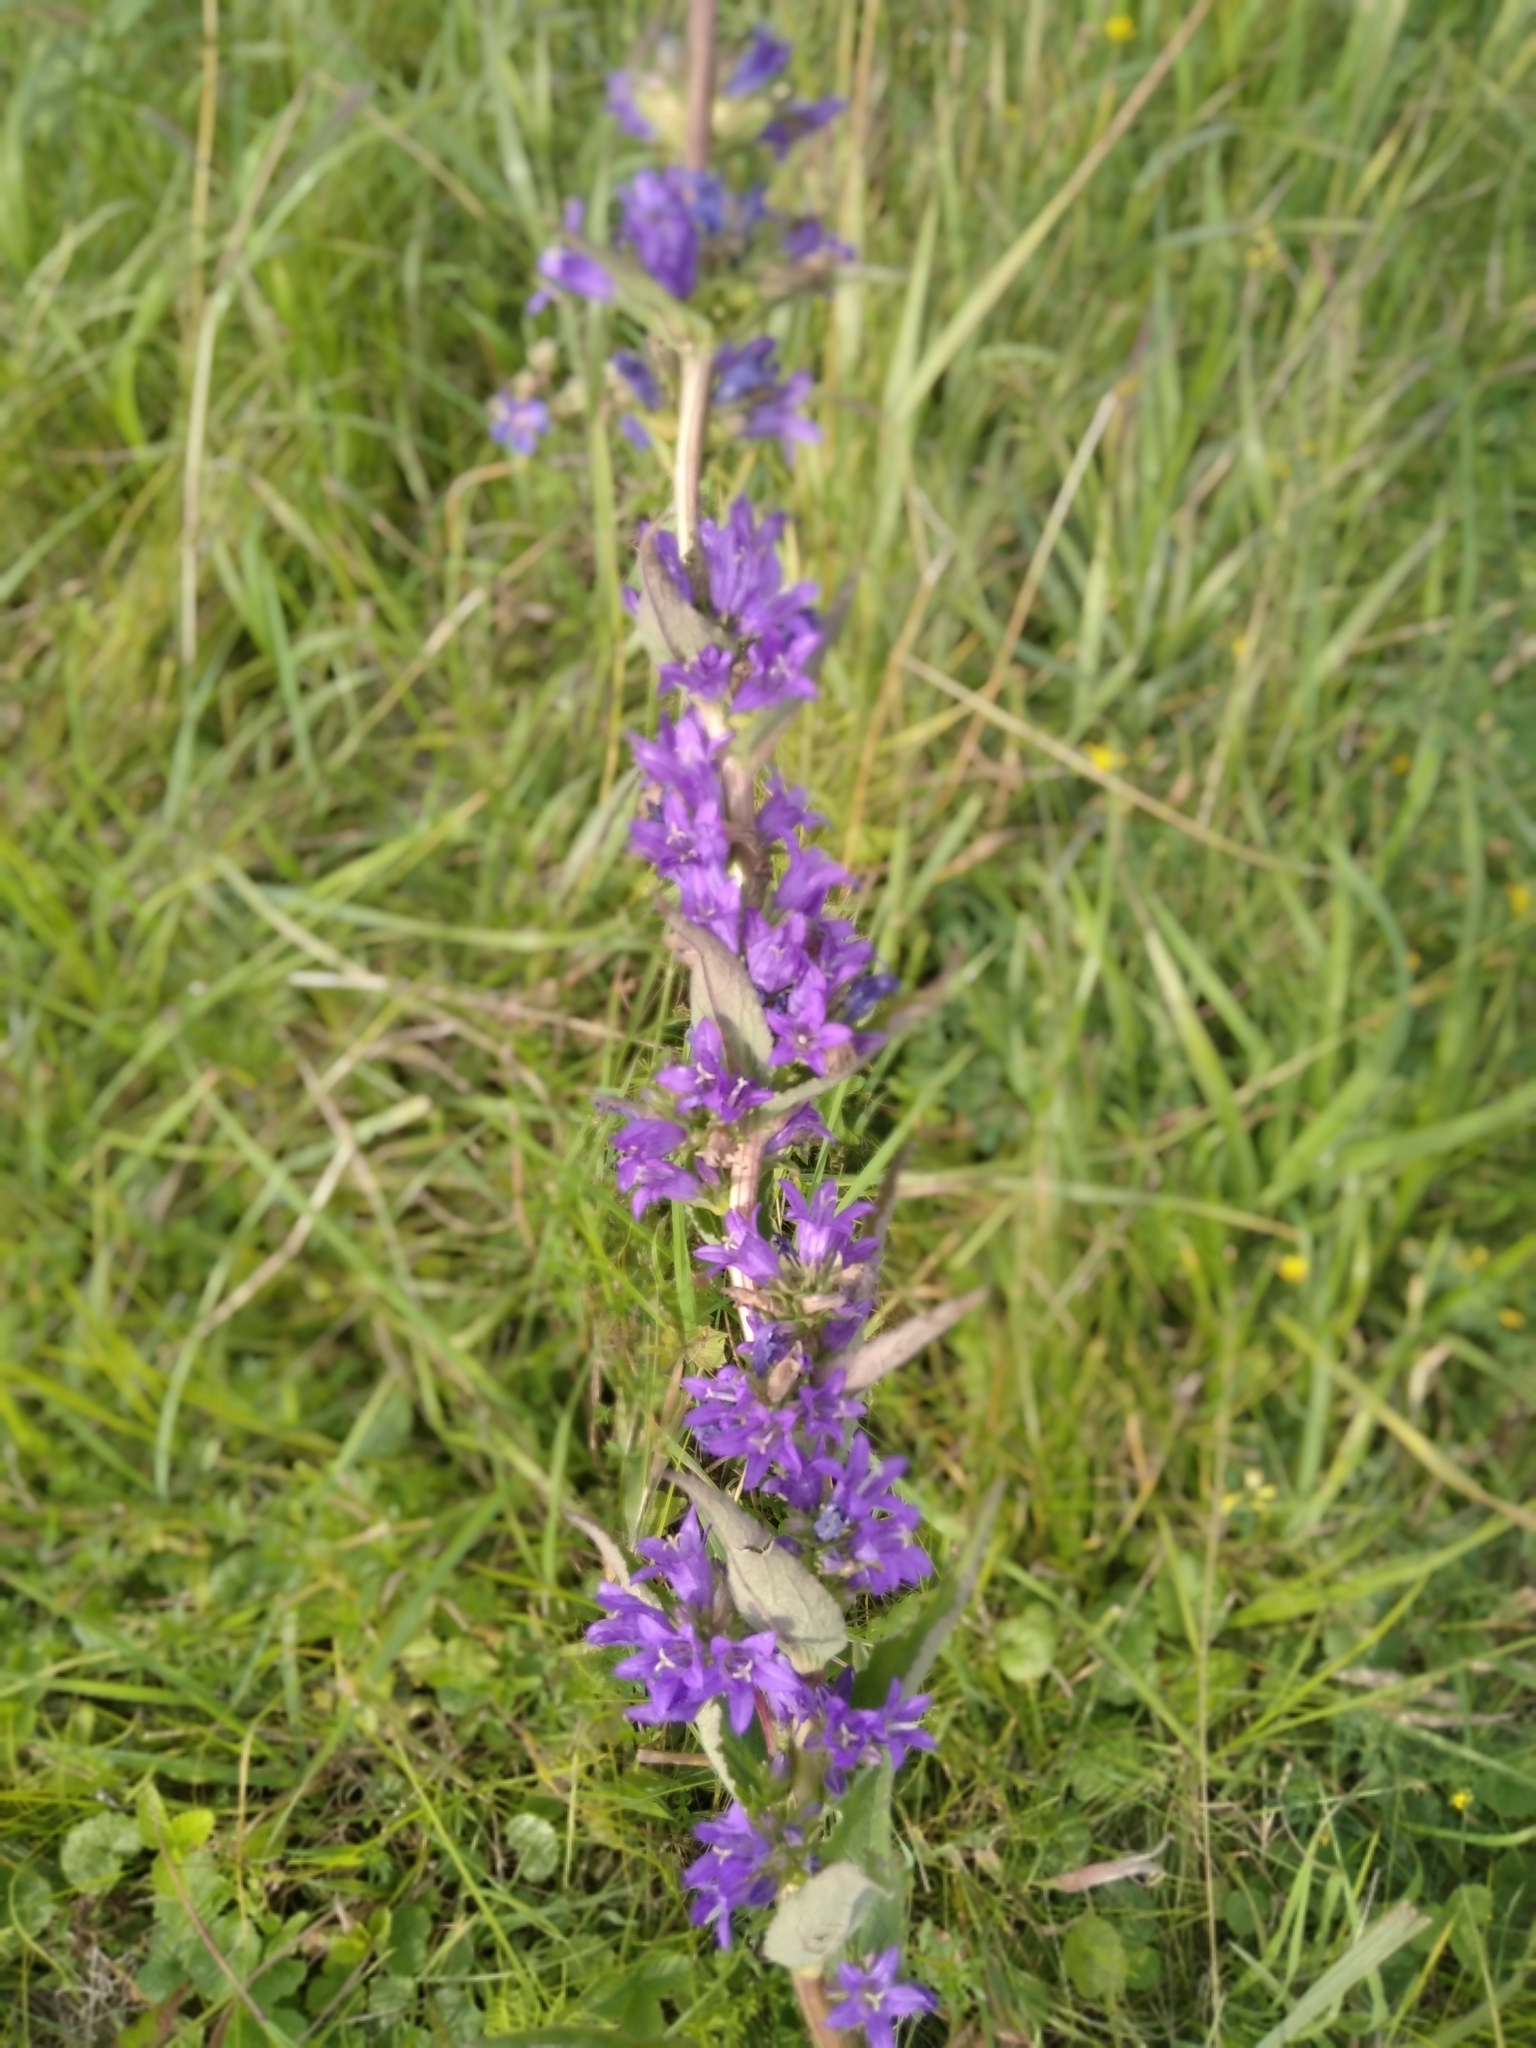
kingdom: Plantae
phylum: Tracheophyta
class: Magnoliopsida
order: Asterales
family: Campanulaceae
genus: Campanula
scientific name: Campanula glomerata
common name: Clustered bellflower
